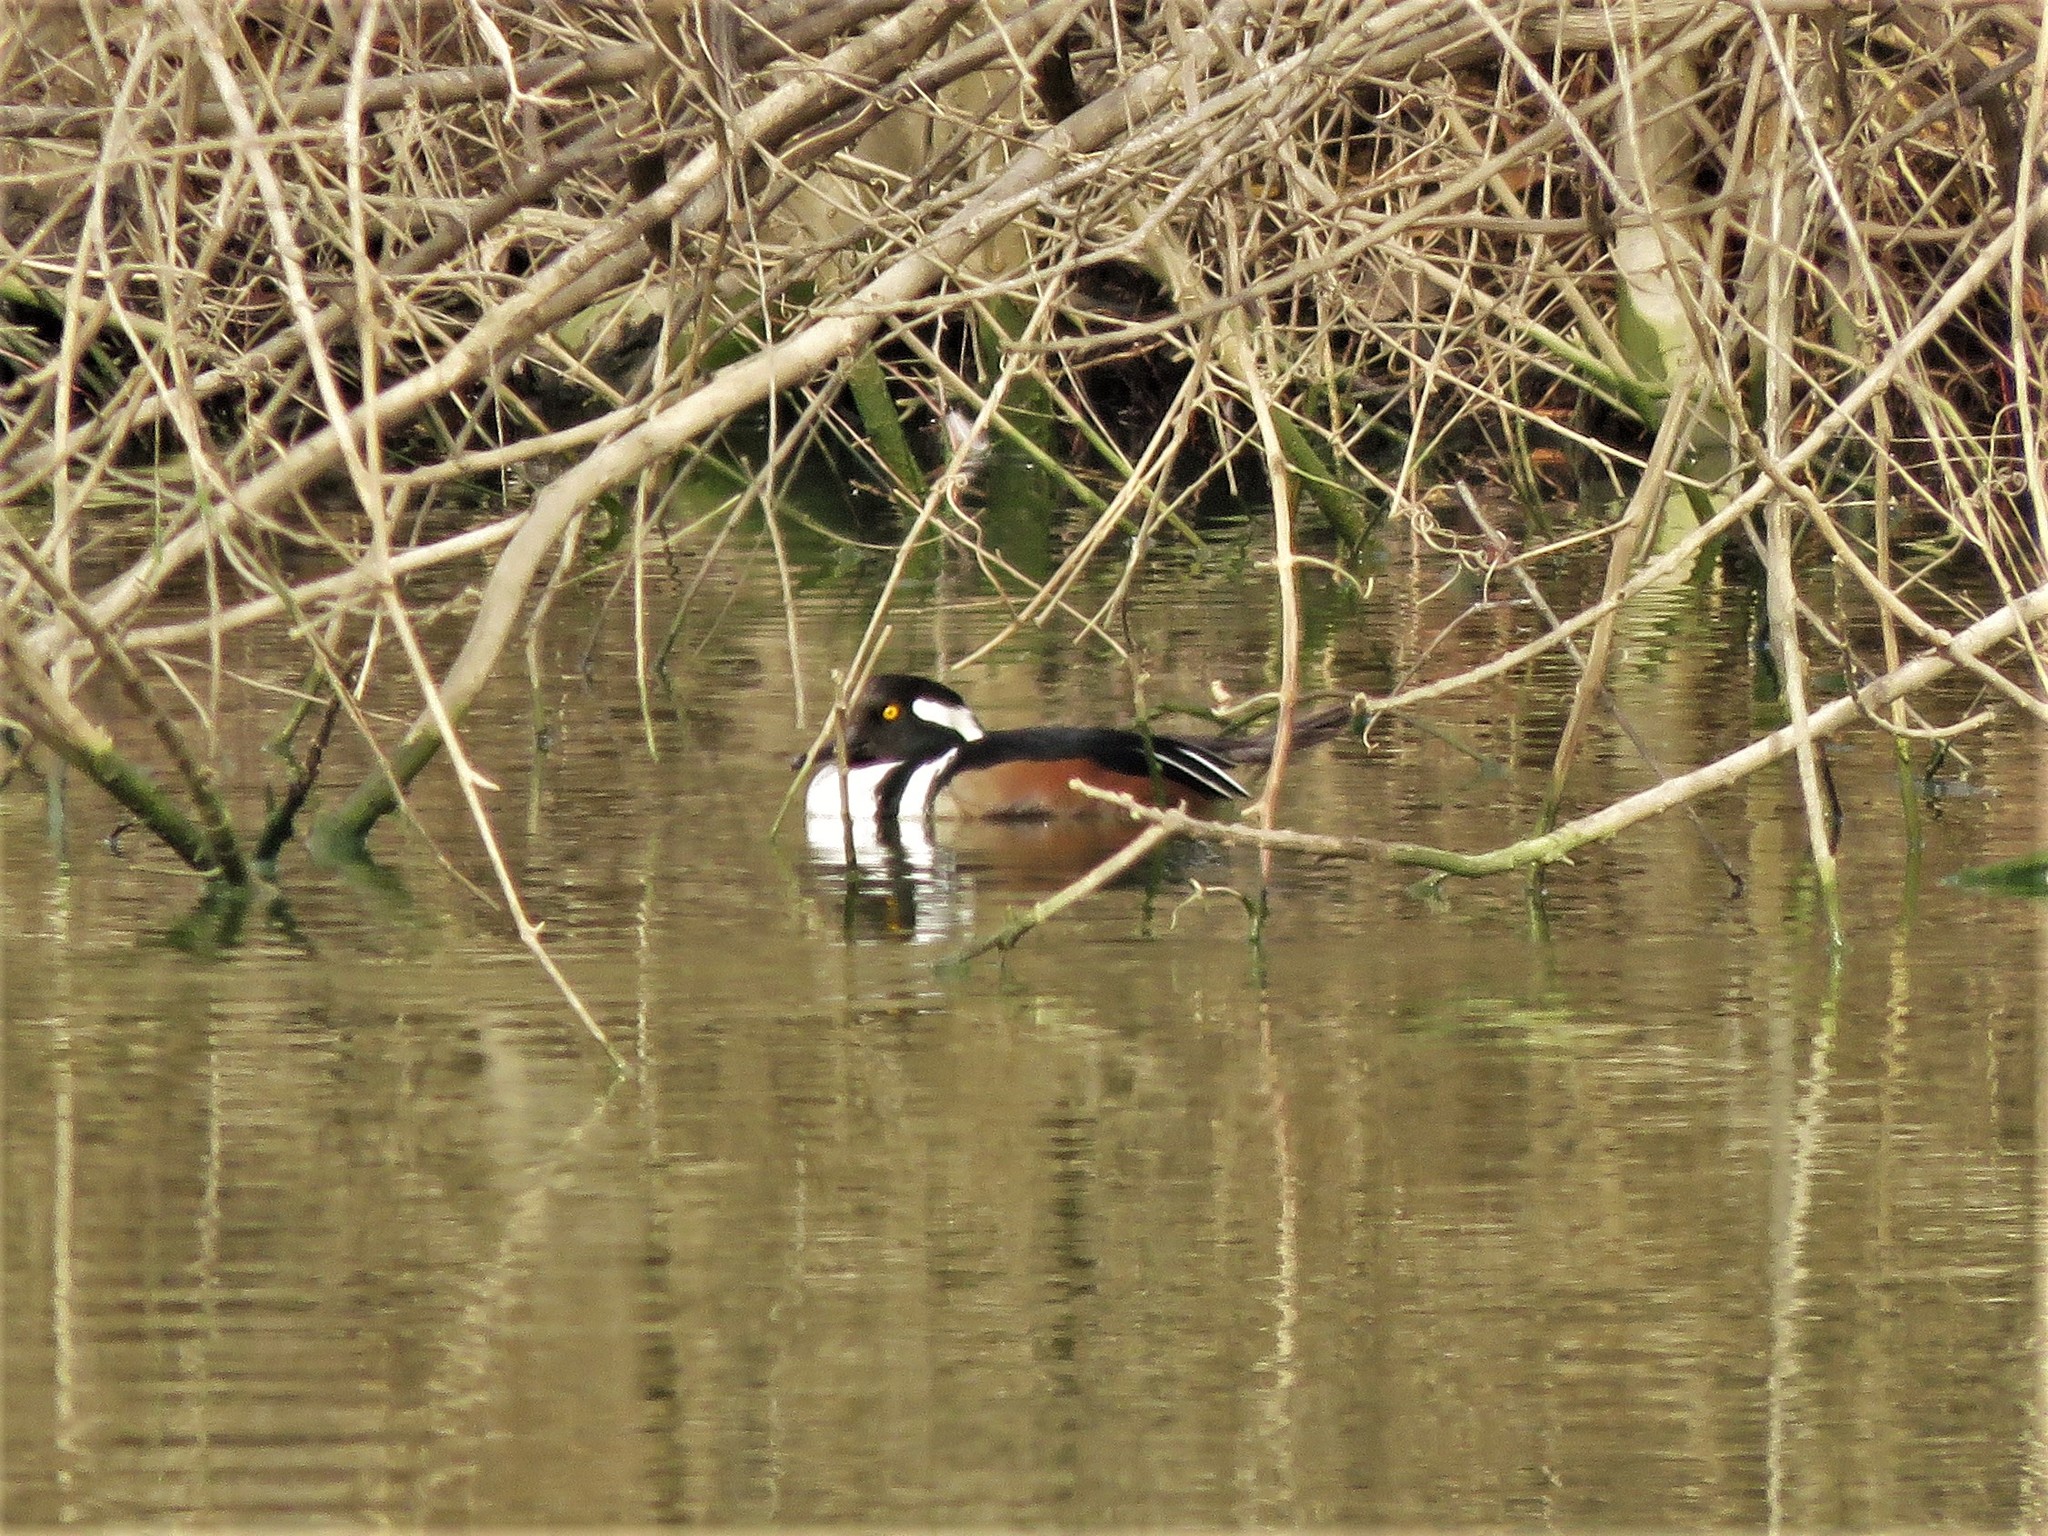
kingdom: Animalia
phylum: Chordata
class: Aves
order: Anseriformes
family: Anatidae
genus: Lophodytes
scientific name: Lophodytes cucullatus
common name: Hooded merganser
